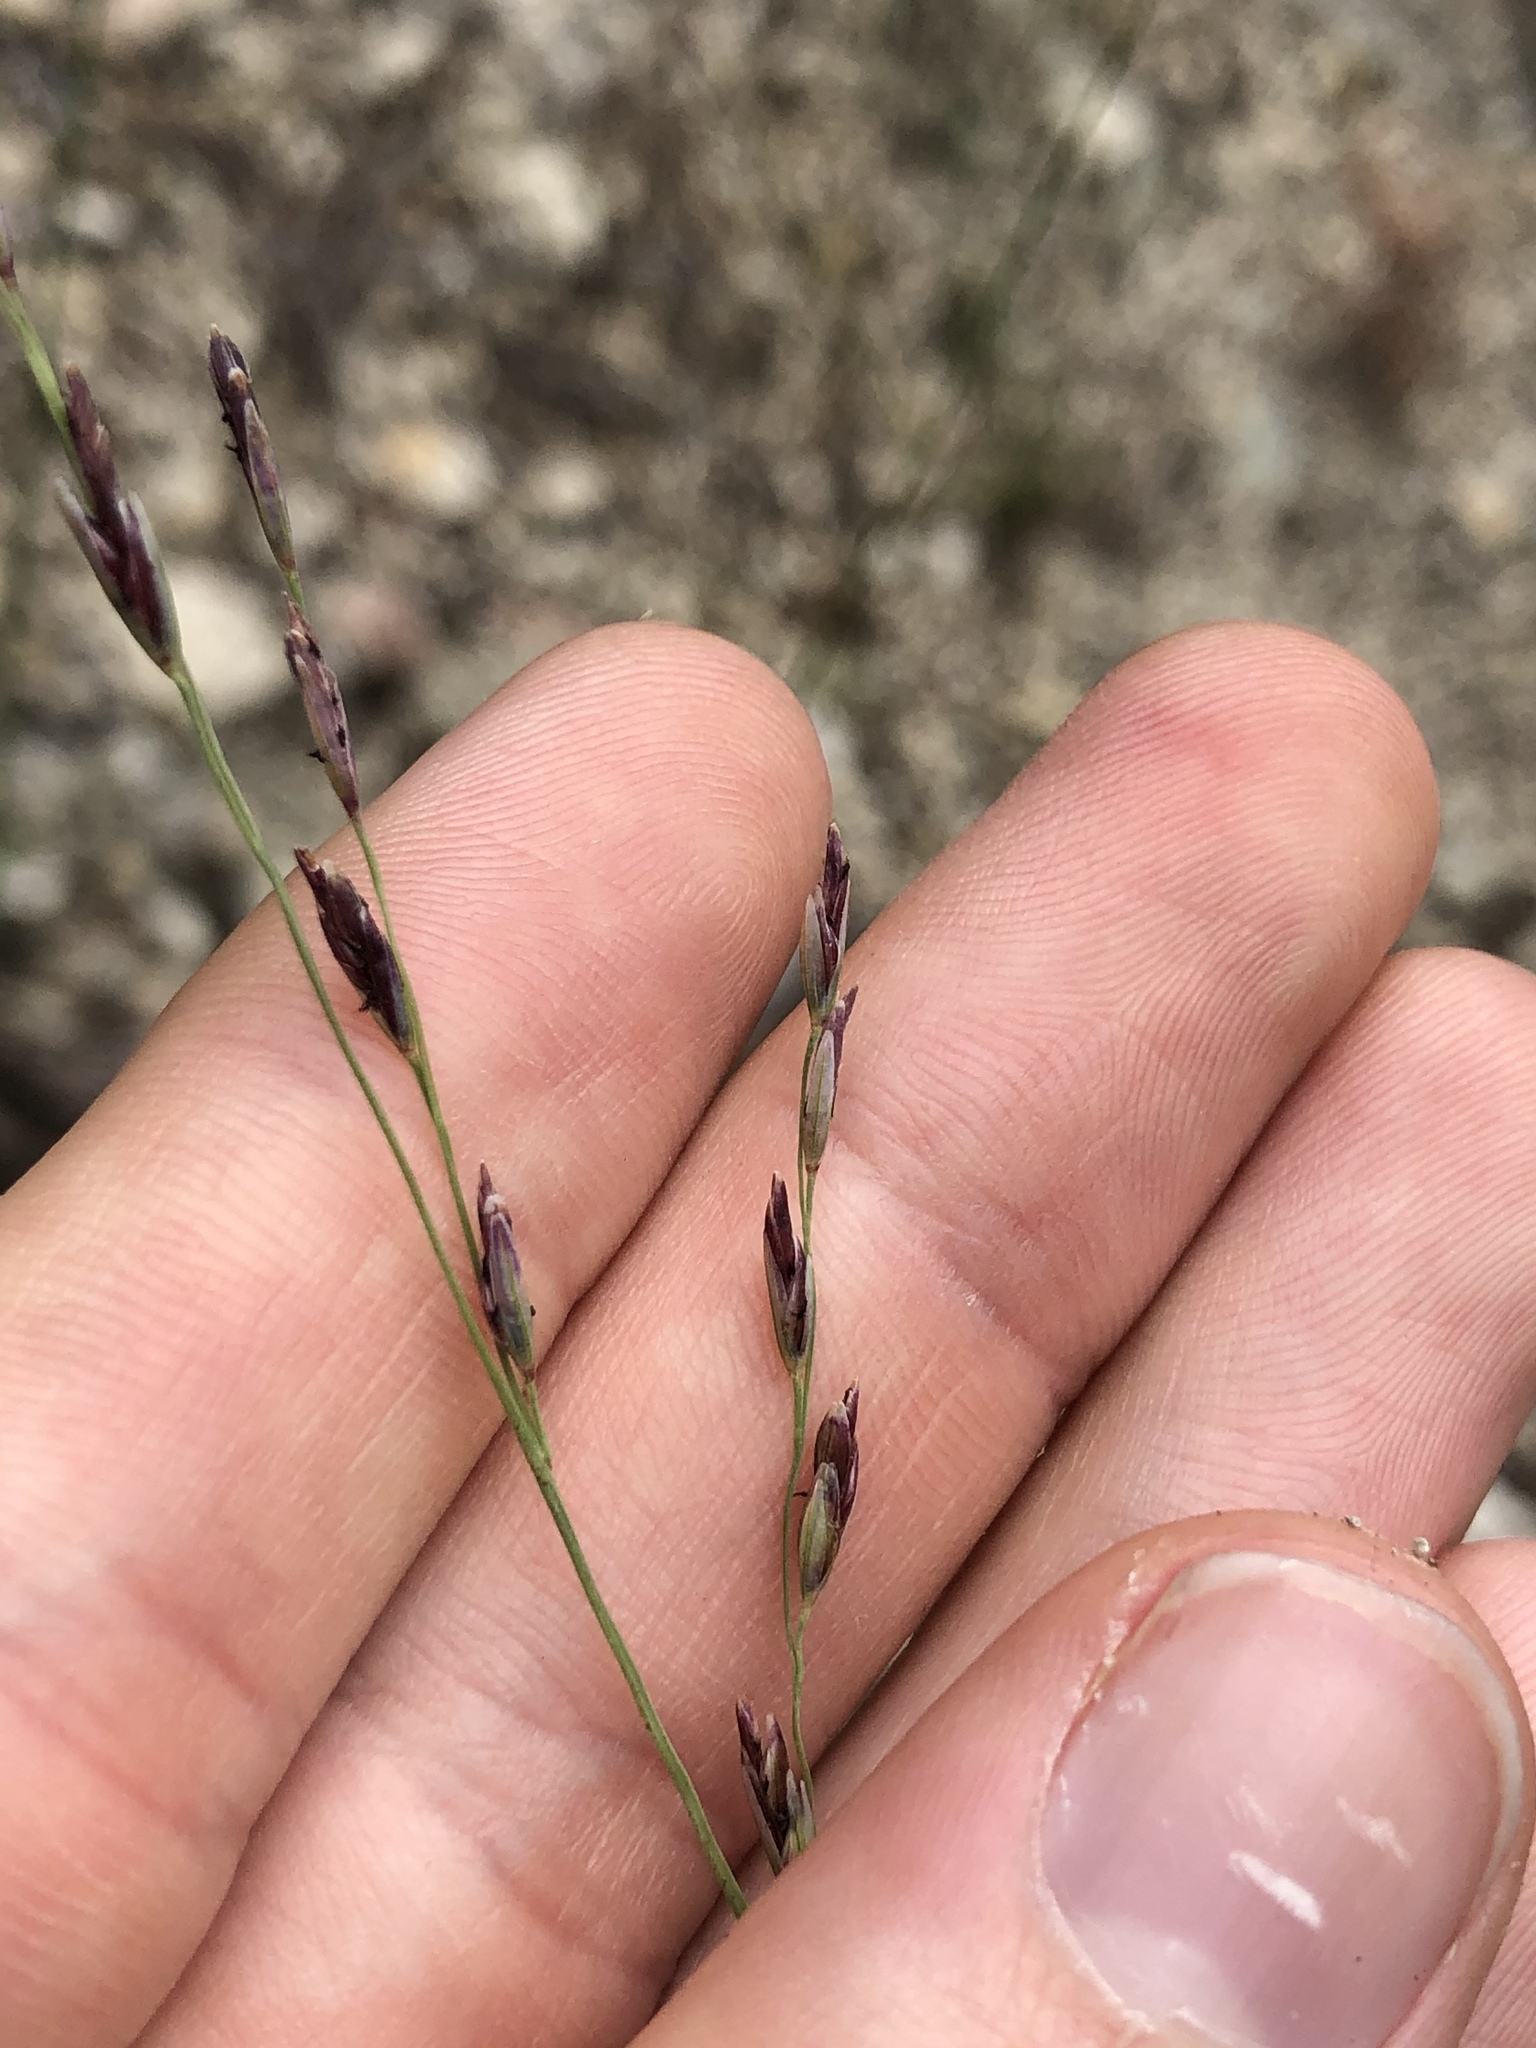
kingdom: Plantae
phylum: Tracheophyta
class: Liliopsida
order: Poales
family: Poaceae
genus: Tridentopsis
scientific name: Tridentopsis buckleyana
